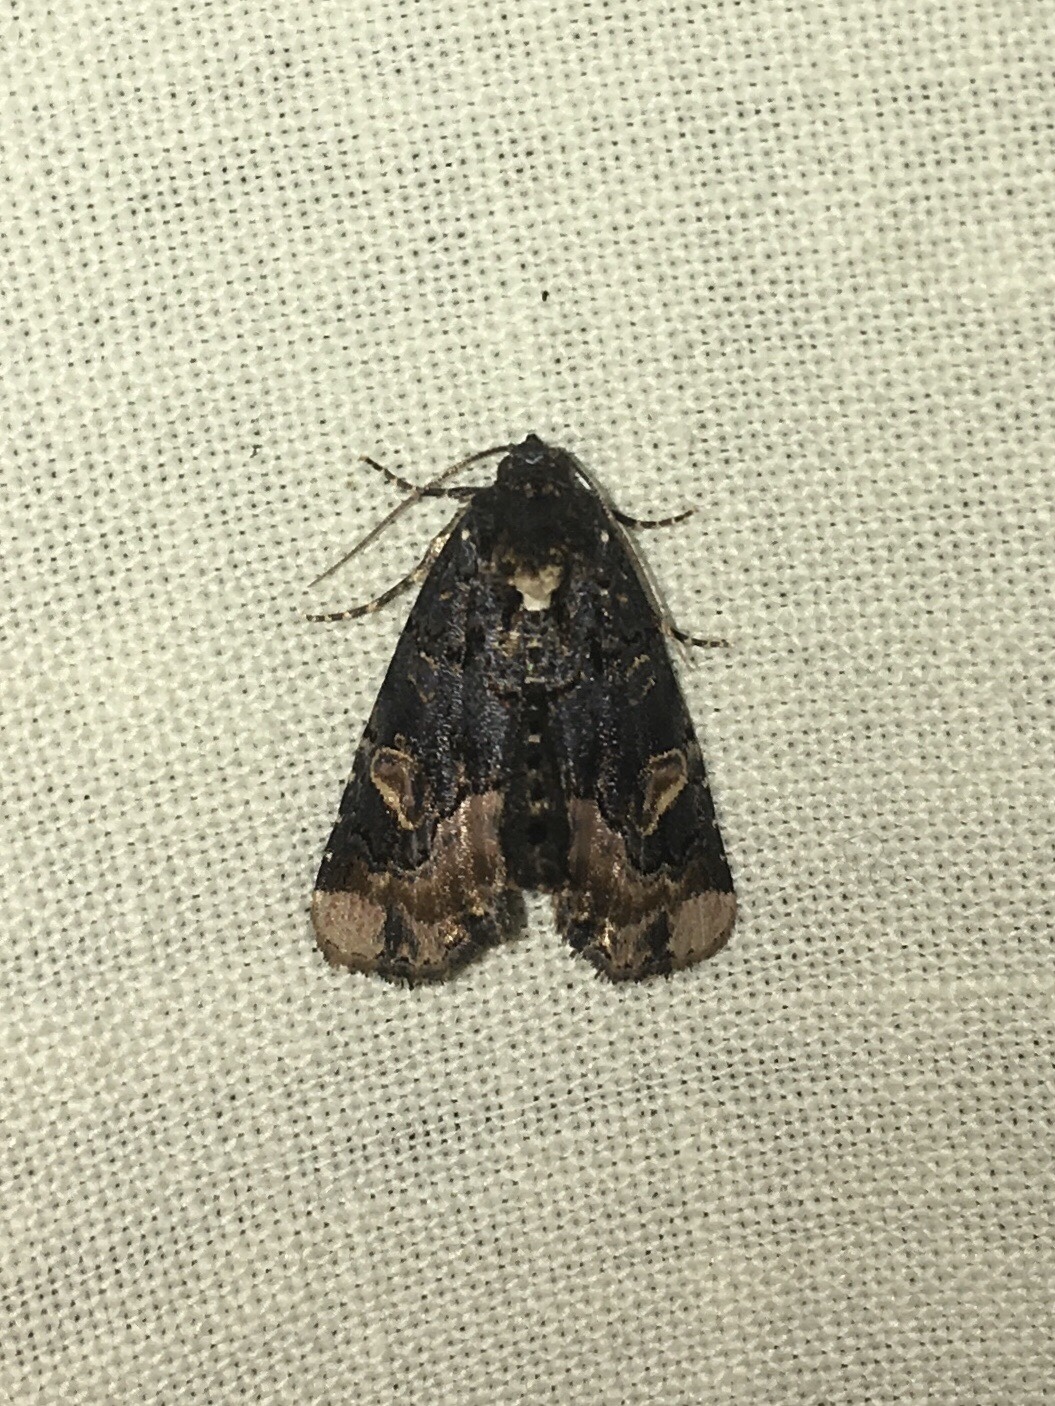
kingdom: Animalia
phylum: Arthropoda
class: Insecta
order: Lepidoptera
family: Noctuidae
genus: Homophoberia
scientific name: Homophoberia apicosa
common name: Black wedge-spot
